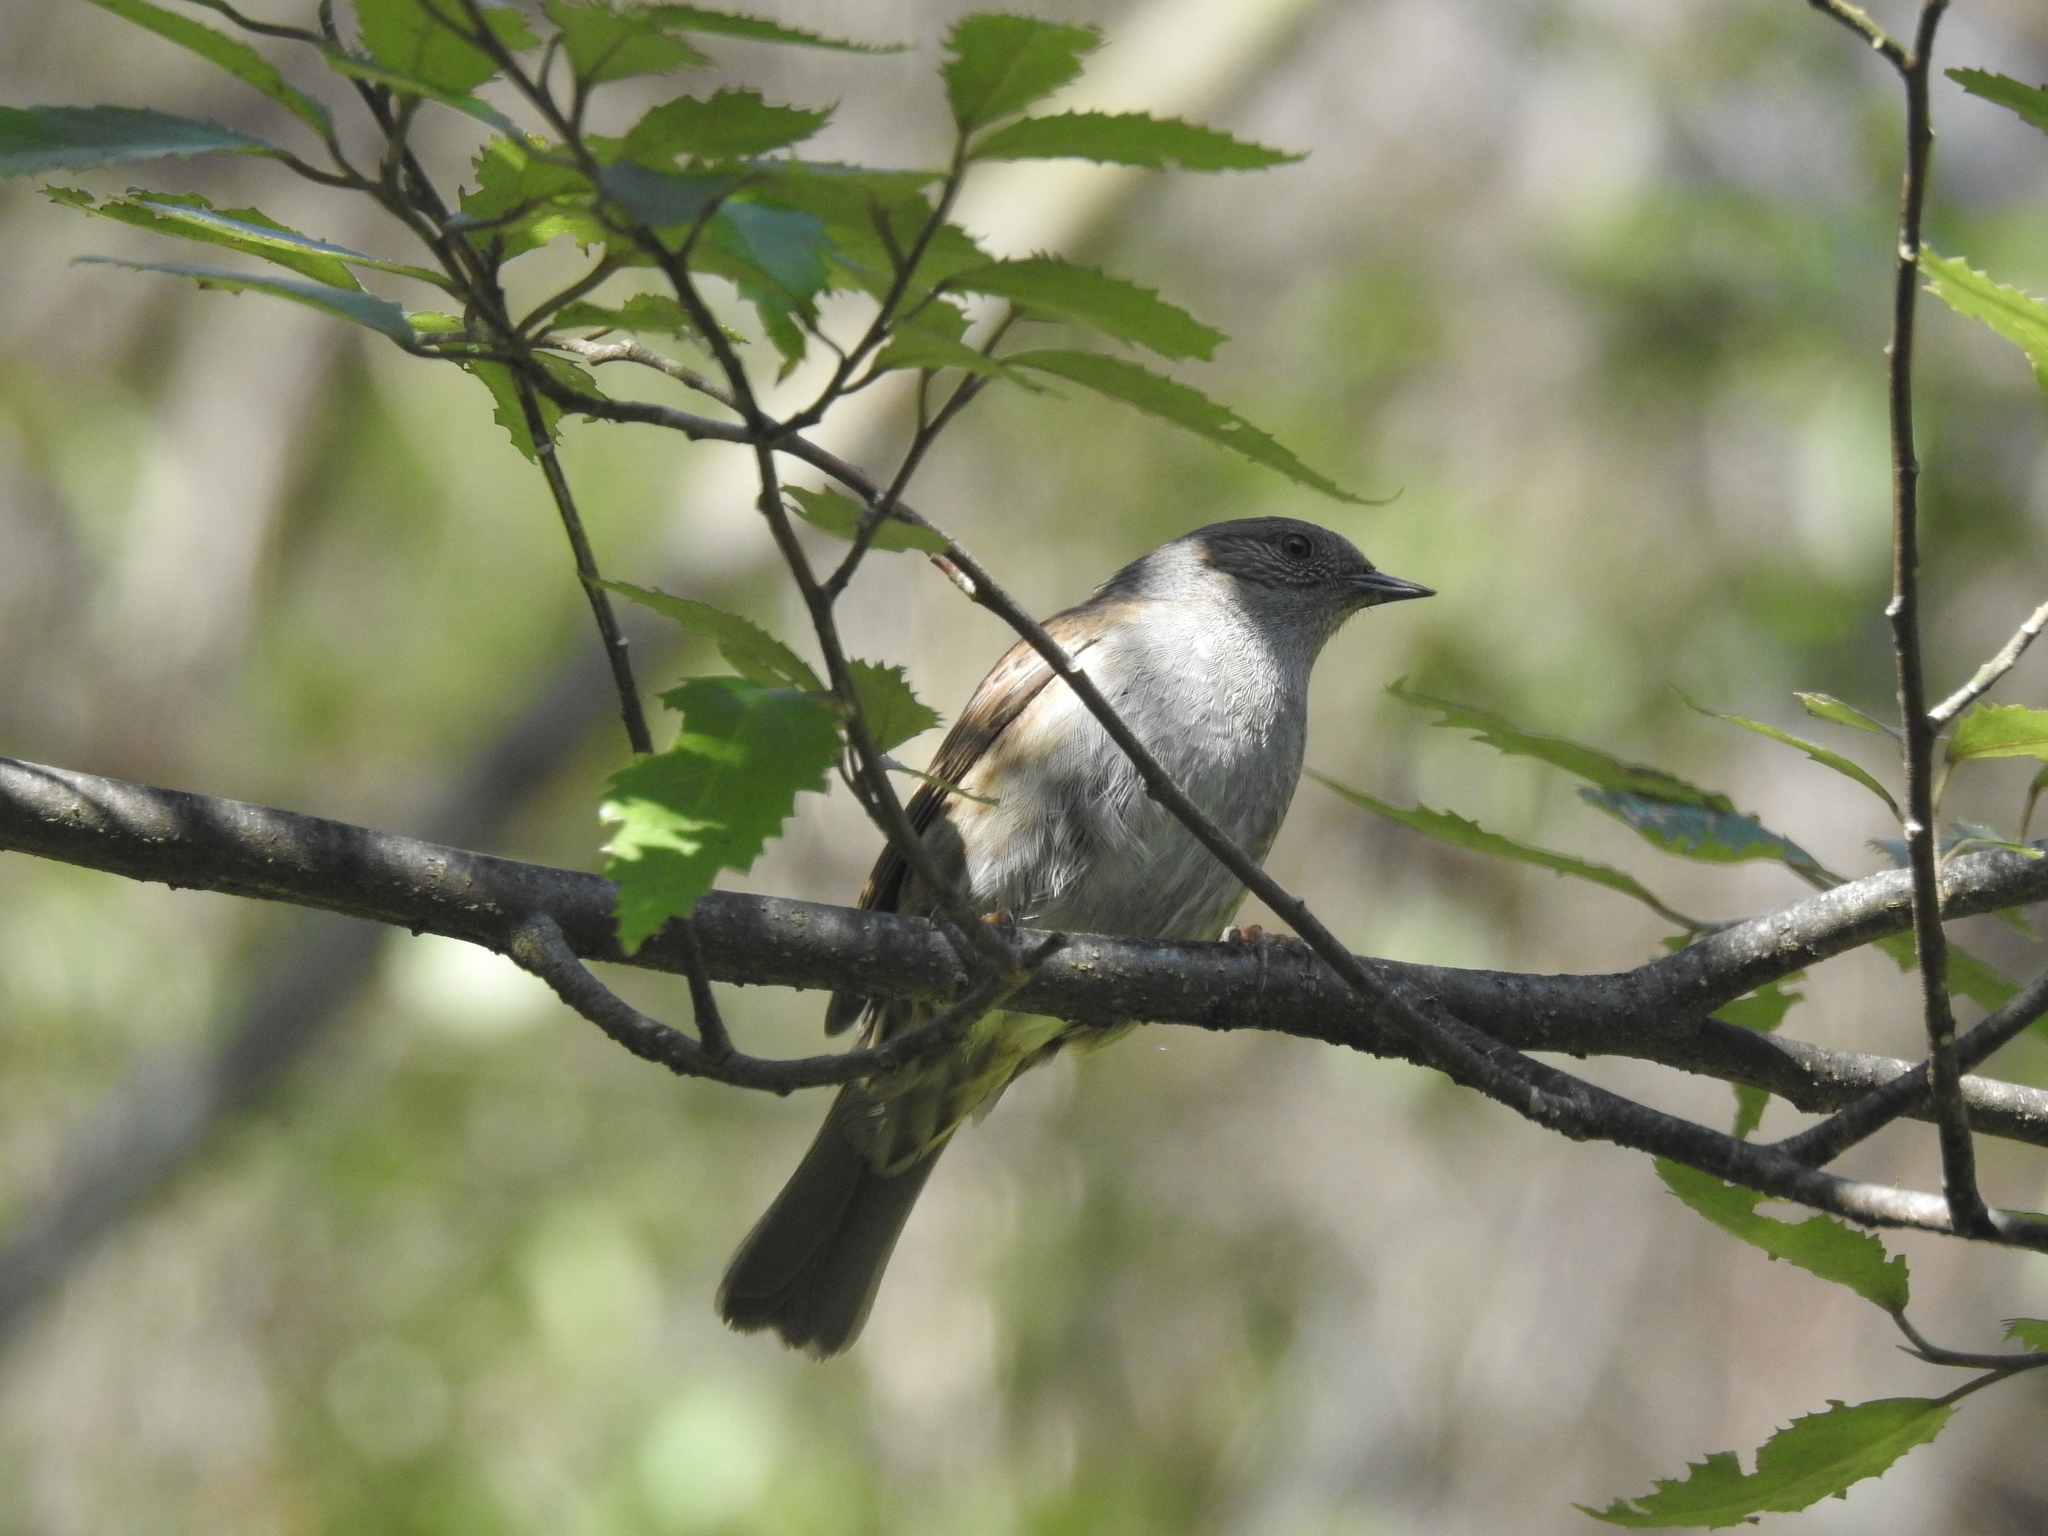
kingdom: Animalia
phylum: Chordata
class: Aves
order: Passeriformes
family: Prunellidae
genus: Prunella
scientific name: Prunella modularis
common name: Dunnock
